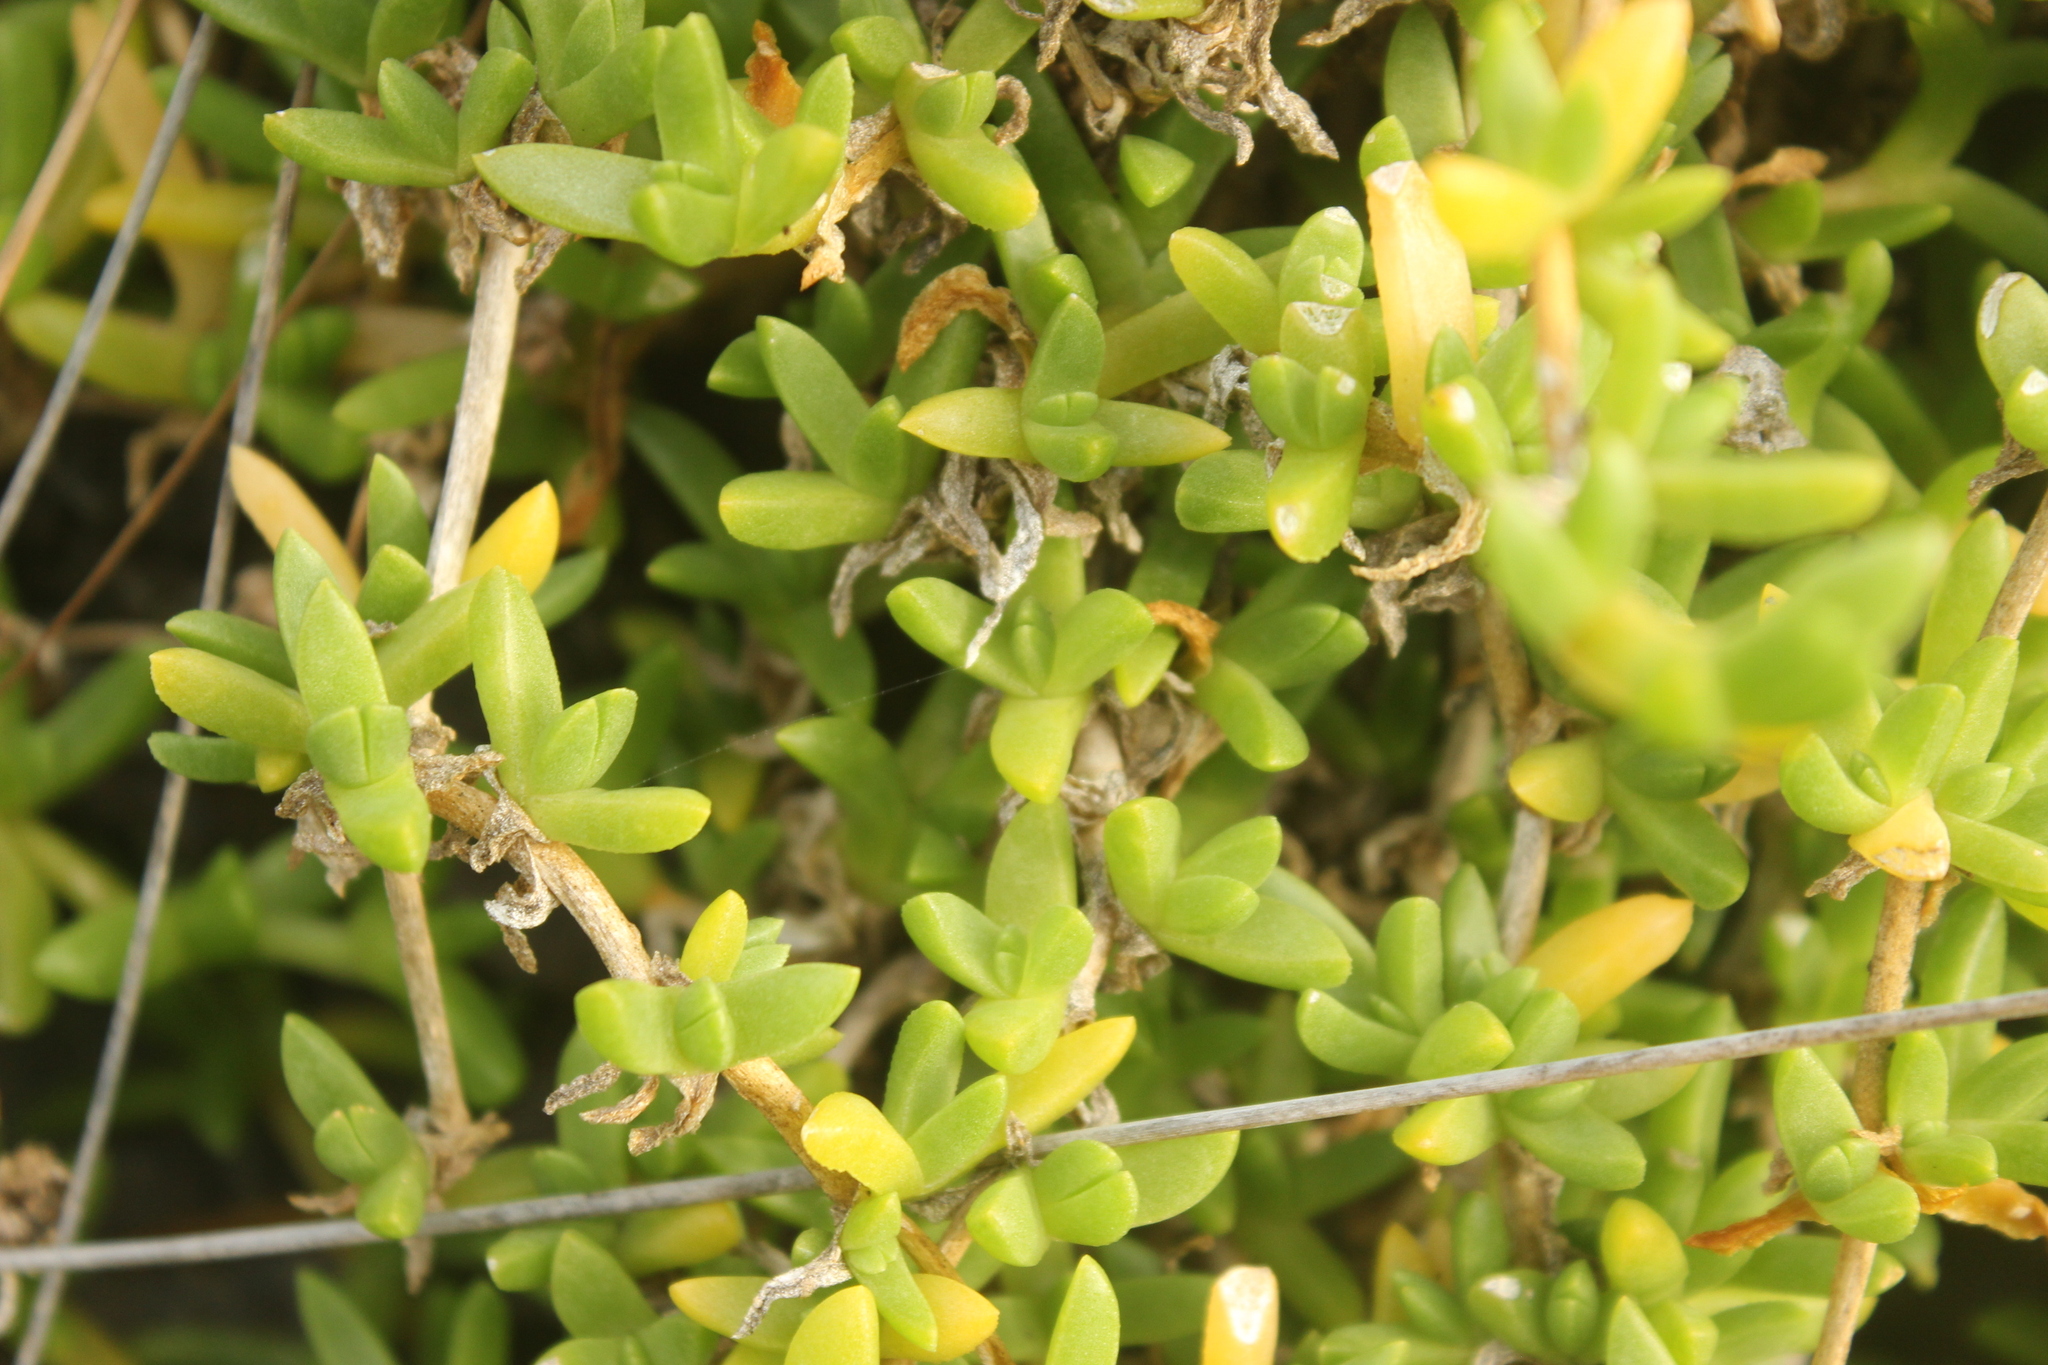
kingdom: Plantae
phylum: Tracheophyta
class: Magnoliopsida
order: Caryophyllales
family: Aizoaceae
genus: Disphyma
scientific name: Disphyma papillatum
